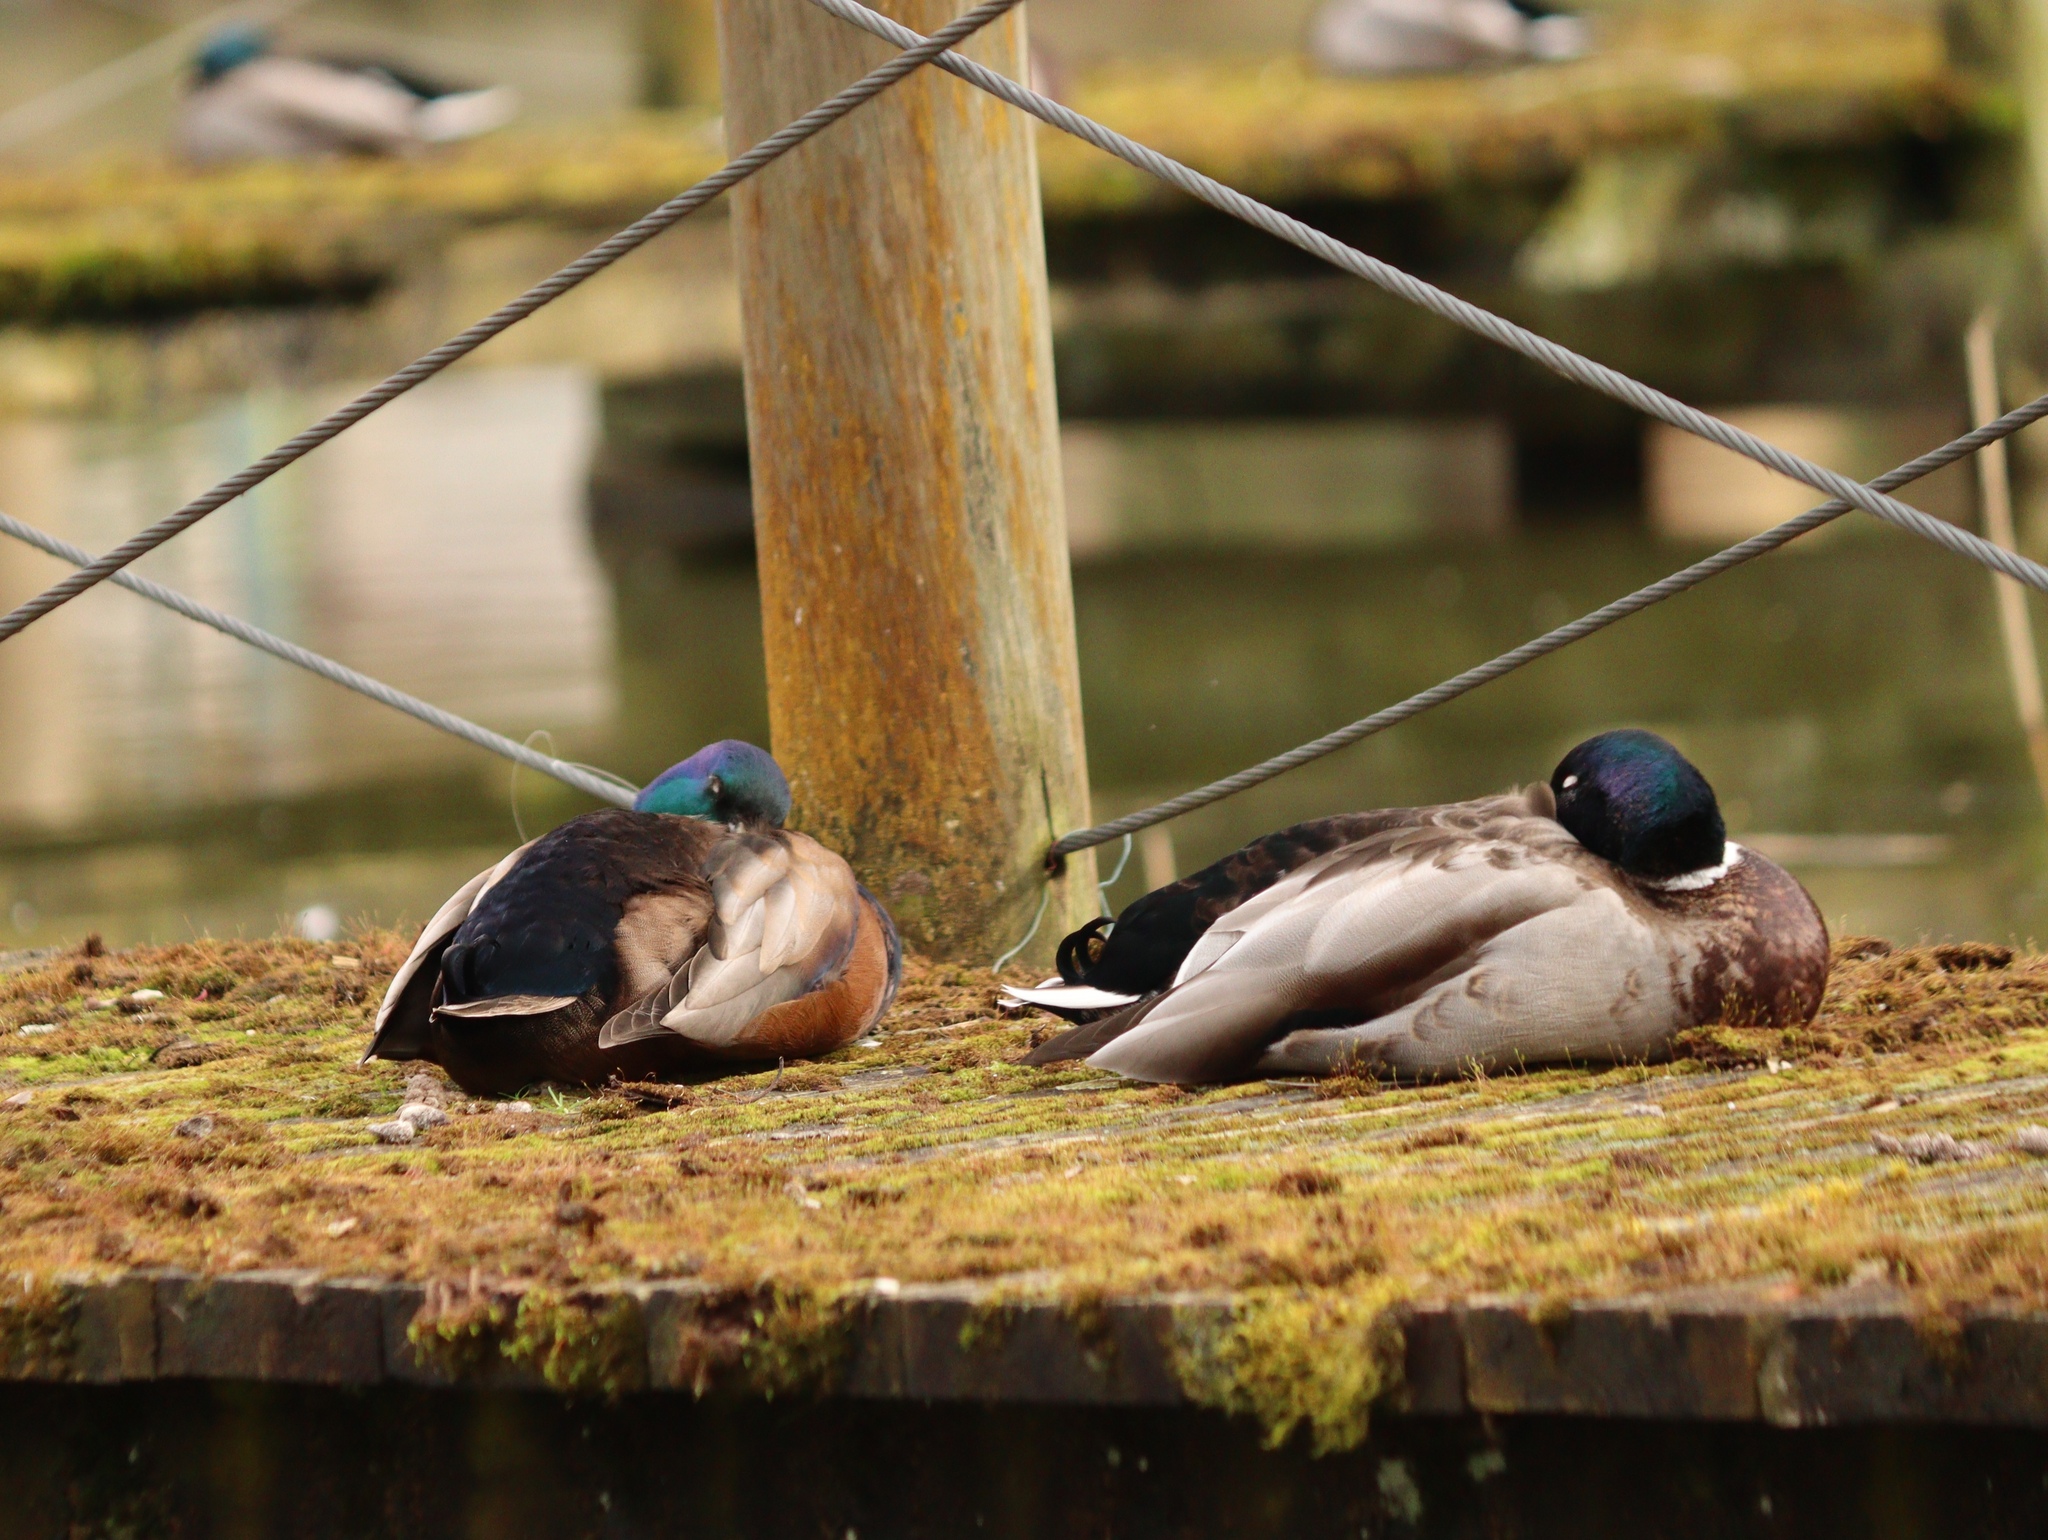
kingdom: Animalia
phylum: Chordata
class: Aves
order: Anseriformes
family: Anatidae
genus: Anas
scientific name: Anas platyrhynchos
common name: Mallard
